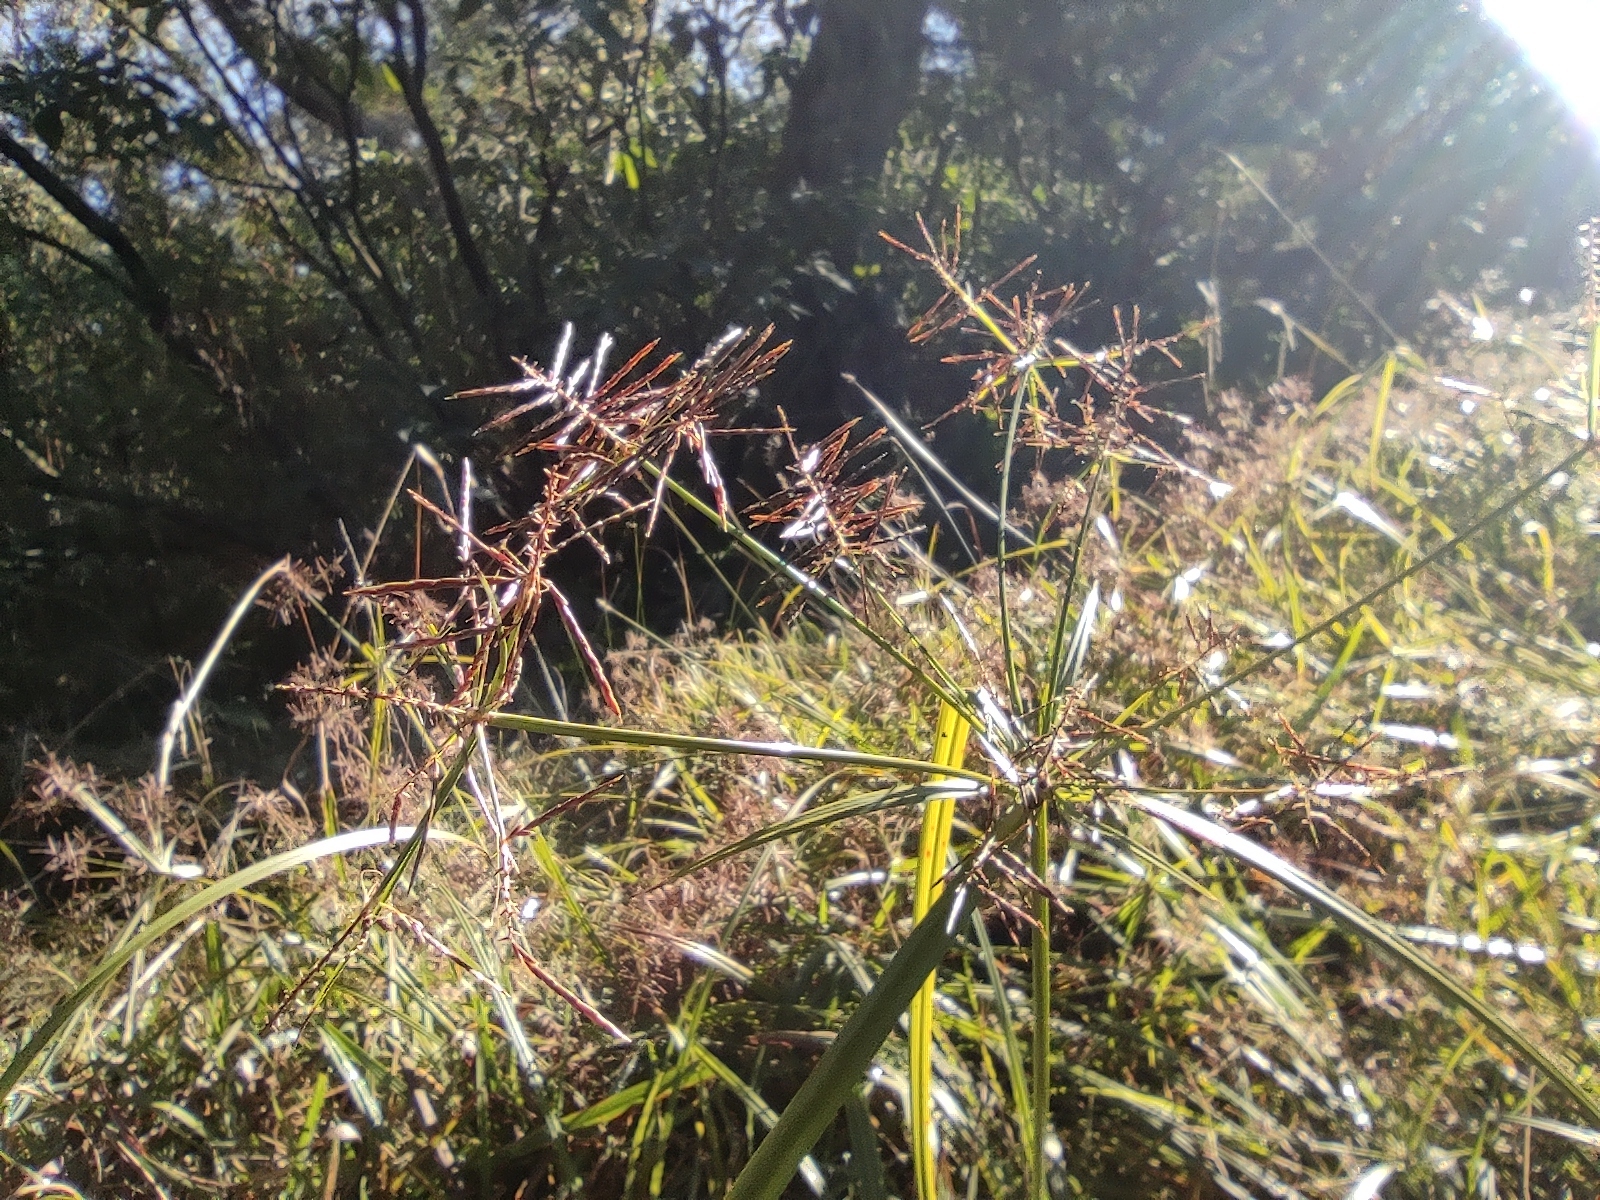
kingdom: Plantae
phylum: Tracheophyta
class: Liliopsida
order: Poales
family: Cyperaceae
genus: Cyperus
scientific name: Cyperus distans
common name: Slender cyperus
